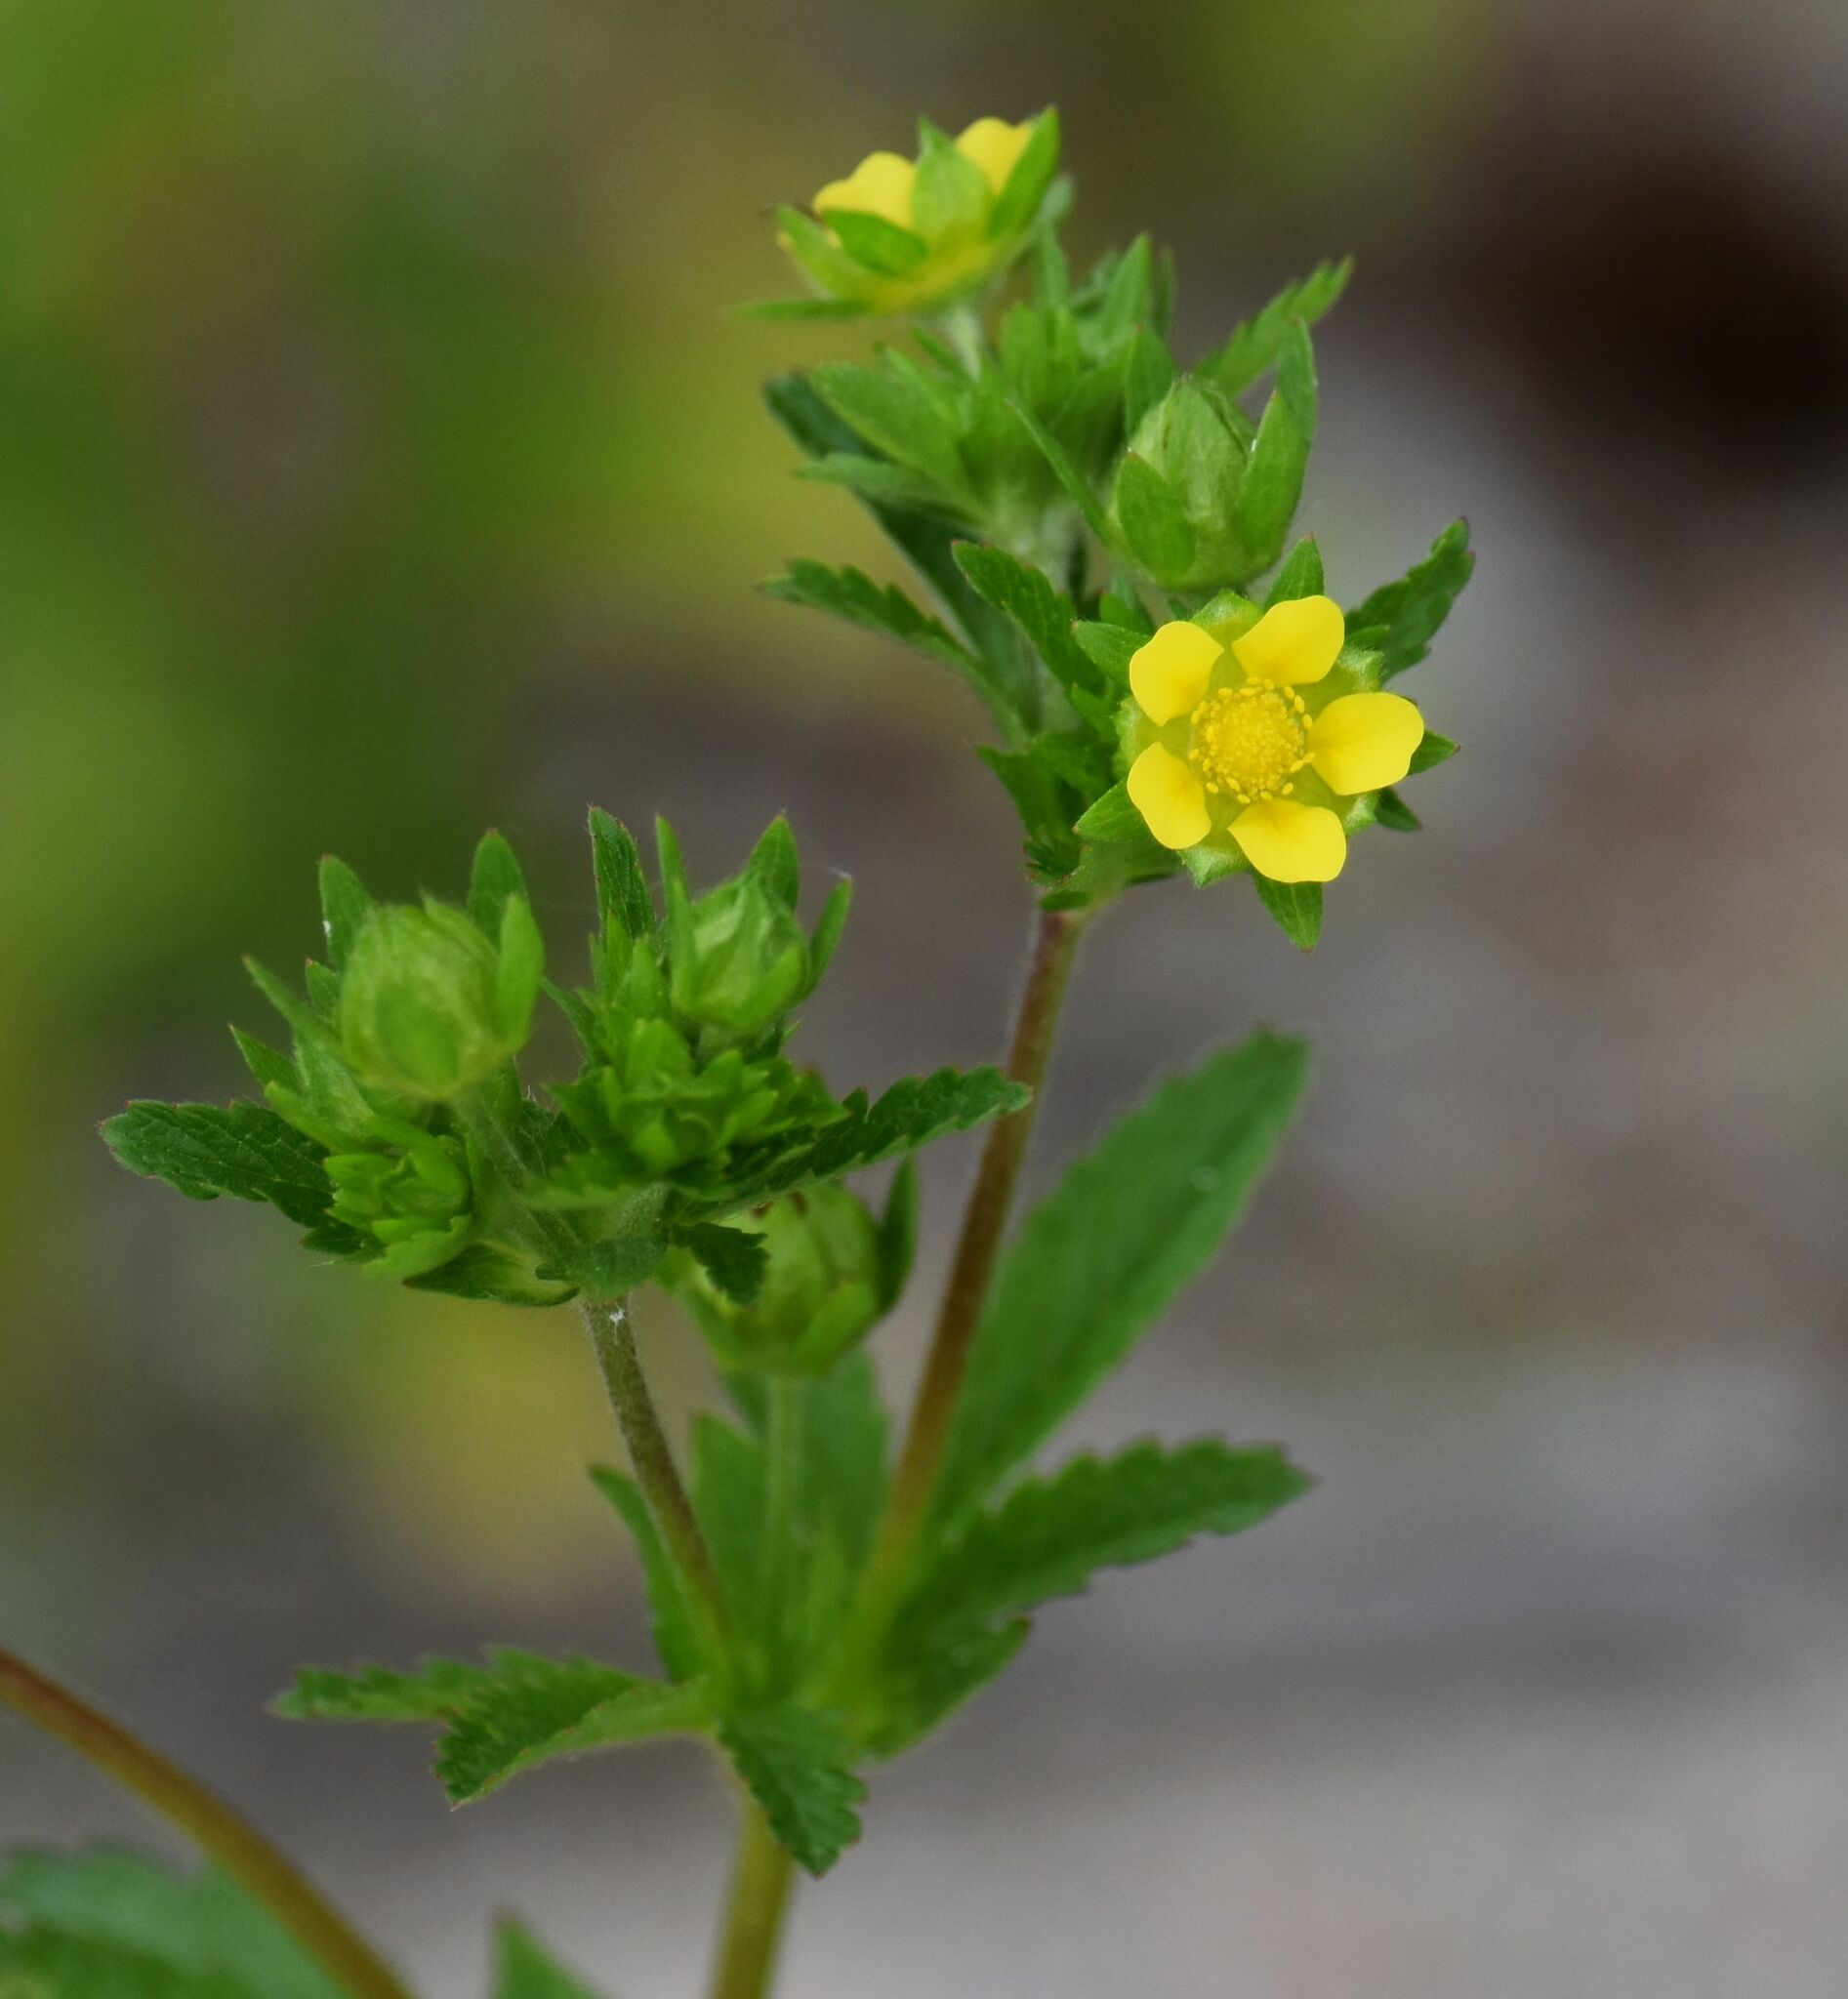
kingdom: Plantae
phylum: Tracheophyta
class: Magnoliopsida
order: Rosales
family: Rosaceae
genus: Potentilla
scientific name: Potentilla norvegica
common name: Ternate-leaved cinquefoil
